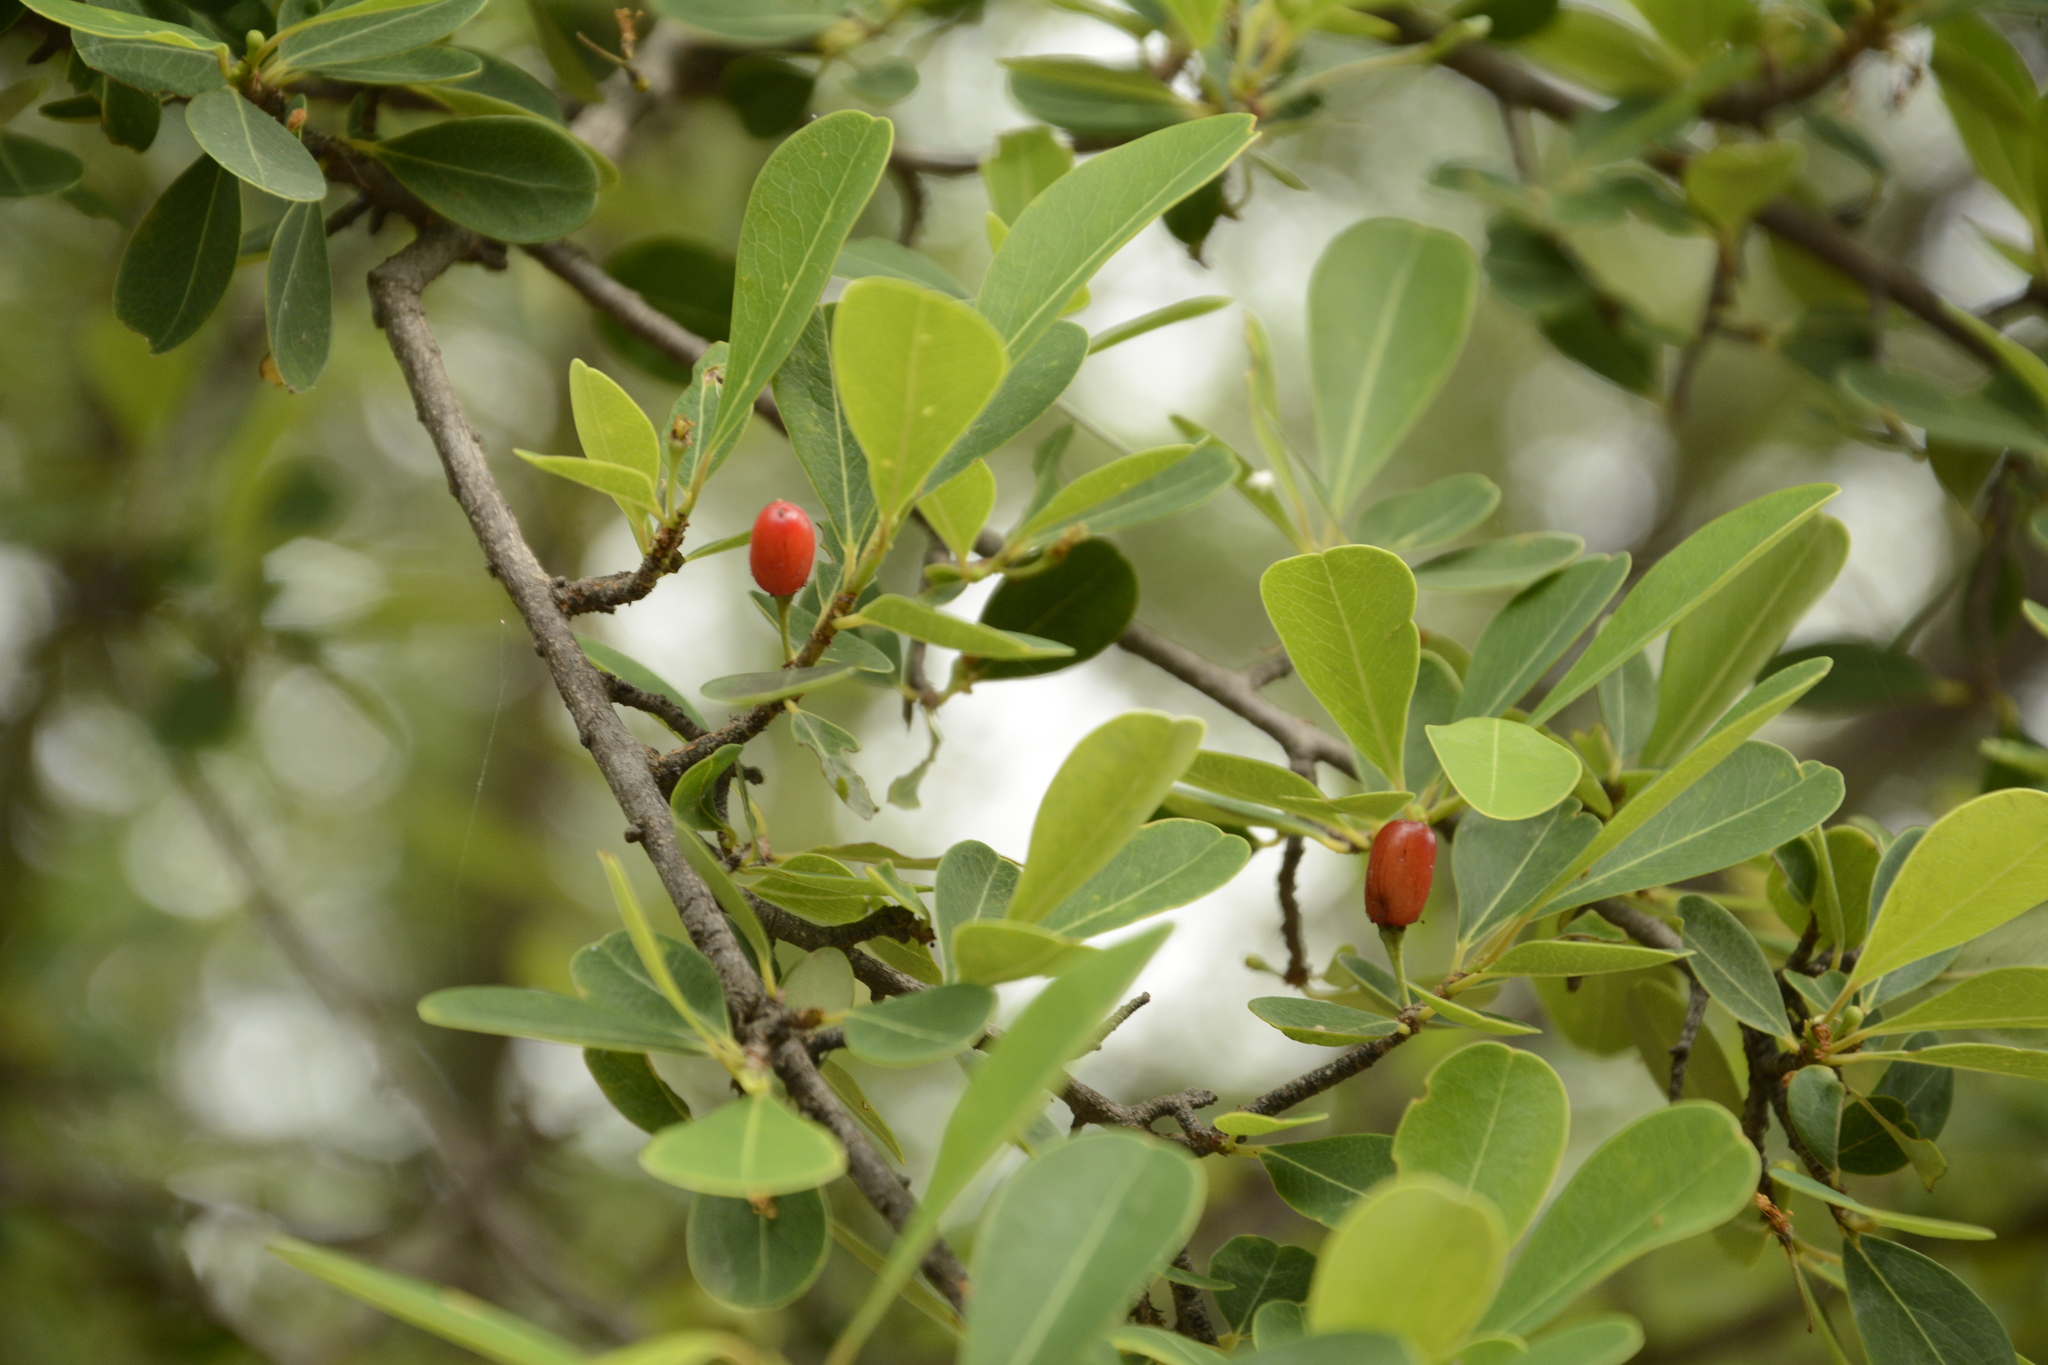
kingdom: Plantae
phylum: Tracheophyta
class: Magnoliopsida
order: Malpighiales
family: Erythroxylaceae
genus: Erythroxylum
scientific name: Erythroxylum monogynum
